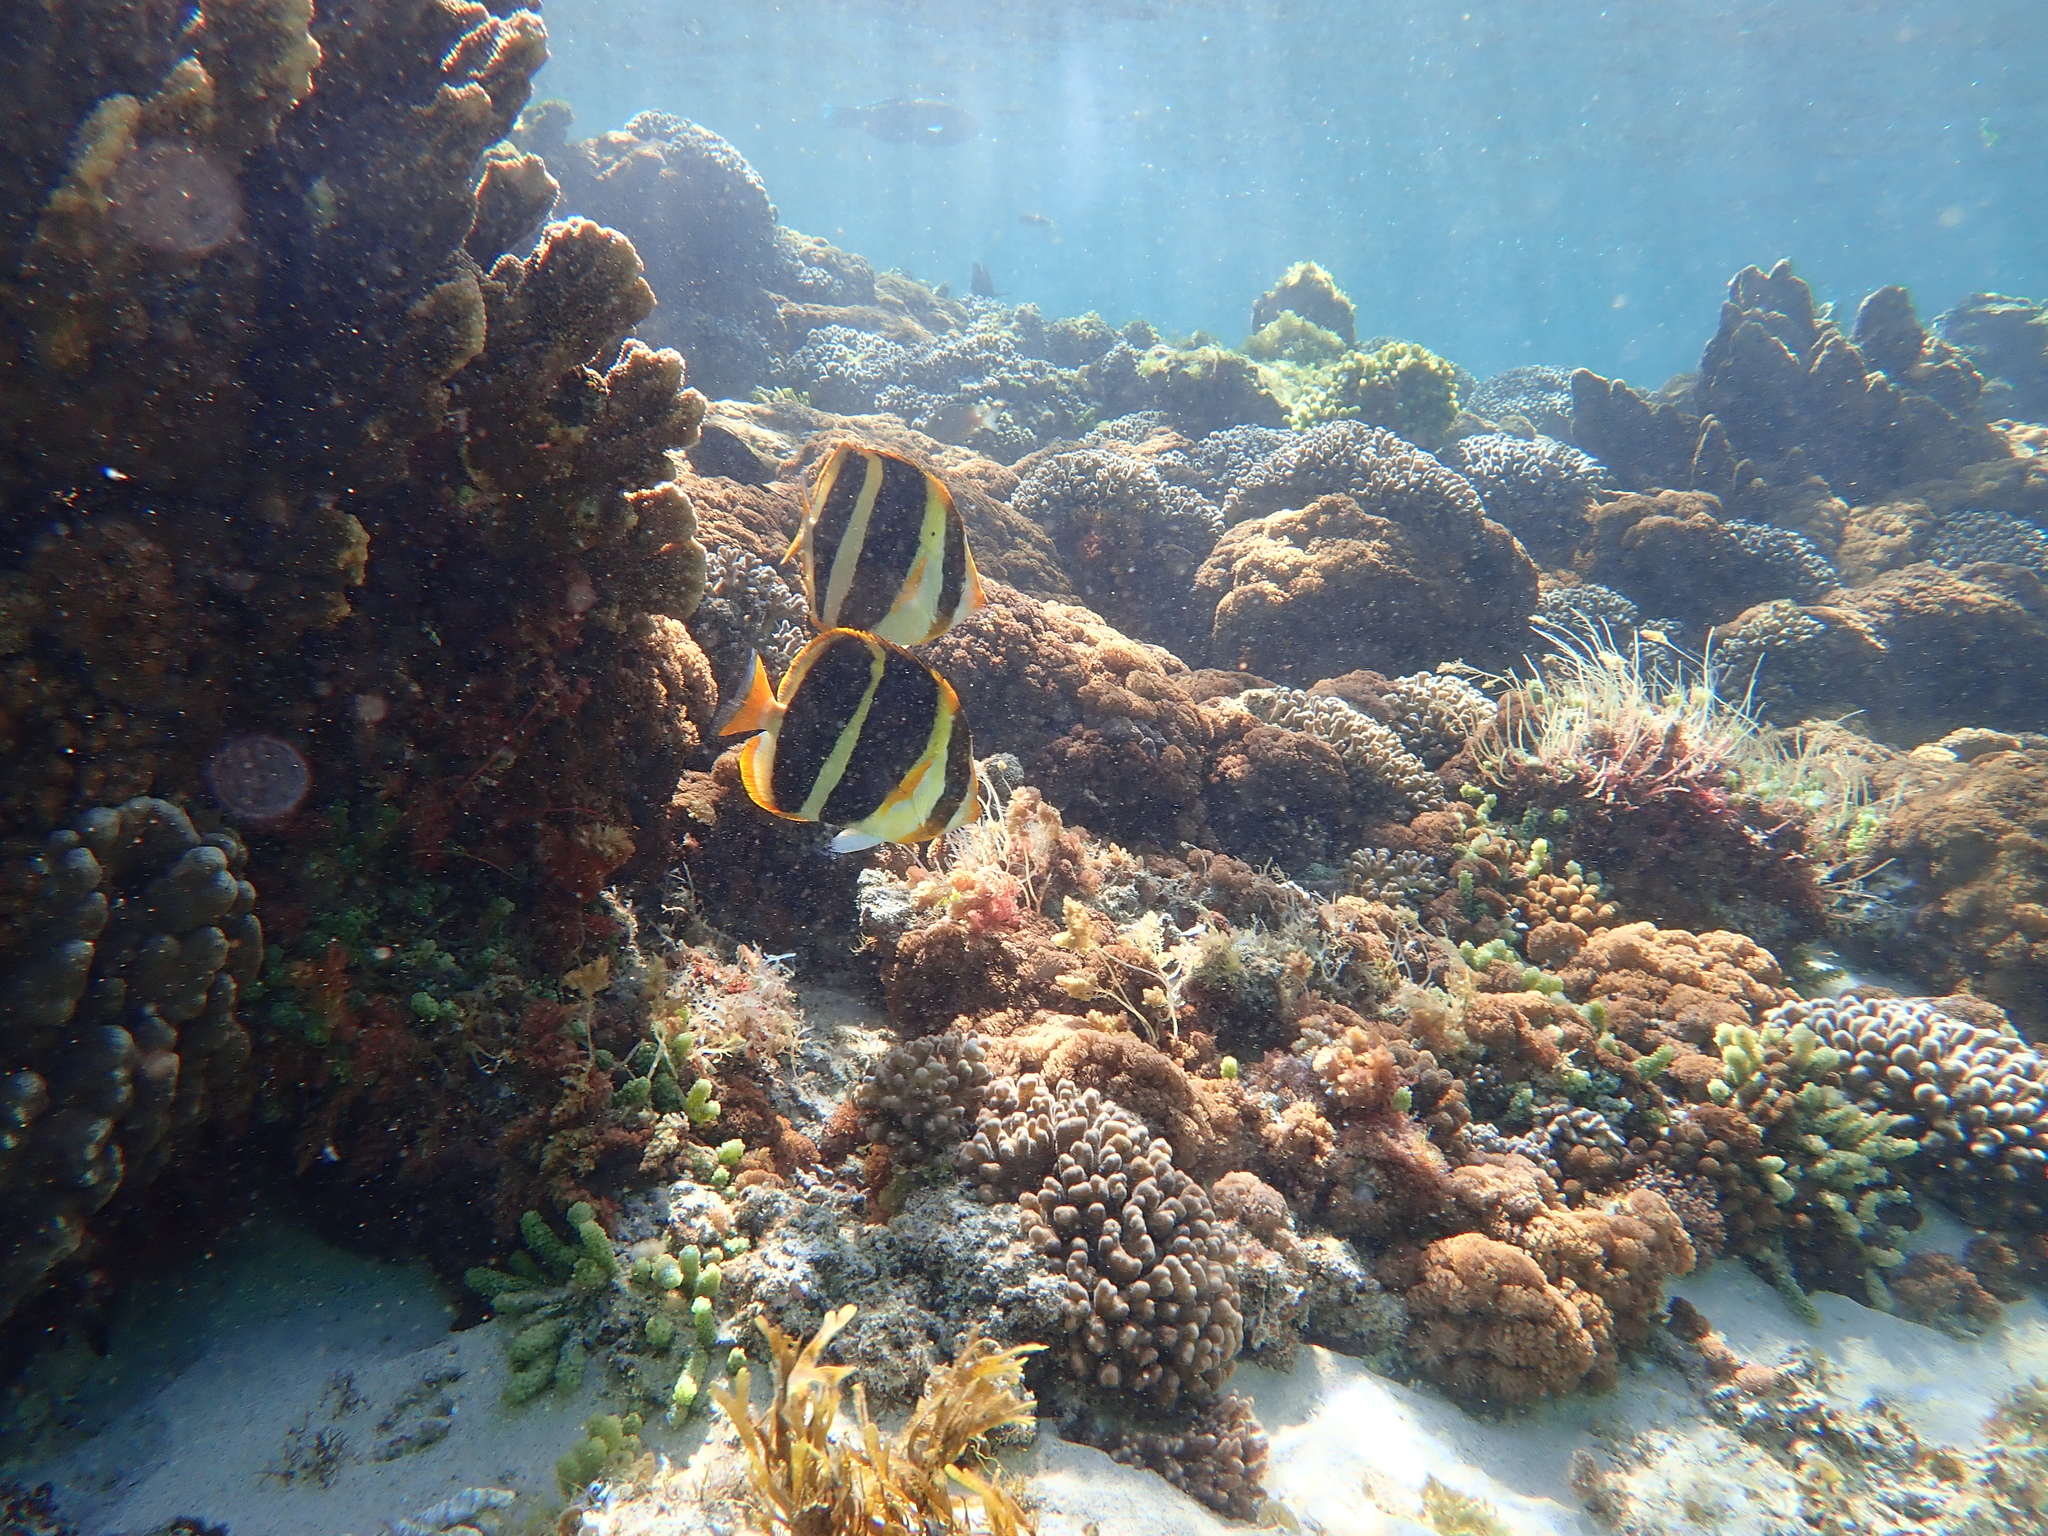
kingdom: Animalia
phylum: Chordata
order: Perciformes
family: Chaetodontidae
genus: Chaetodon
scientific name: Chaetodon tricinctus
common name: Three-striped butterflyfish
